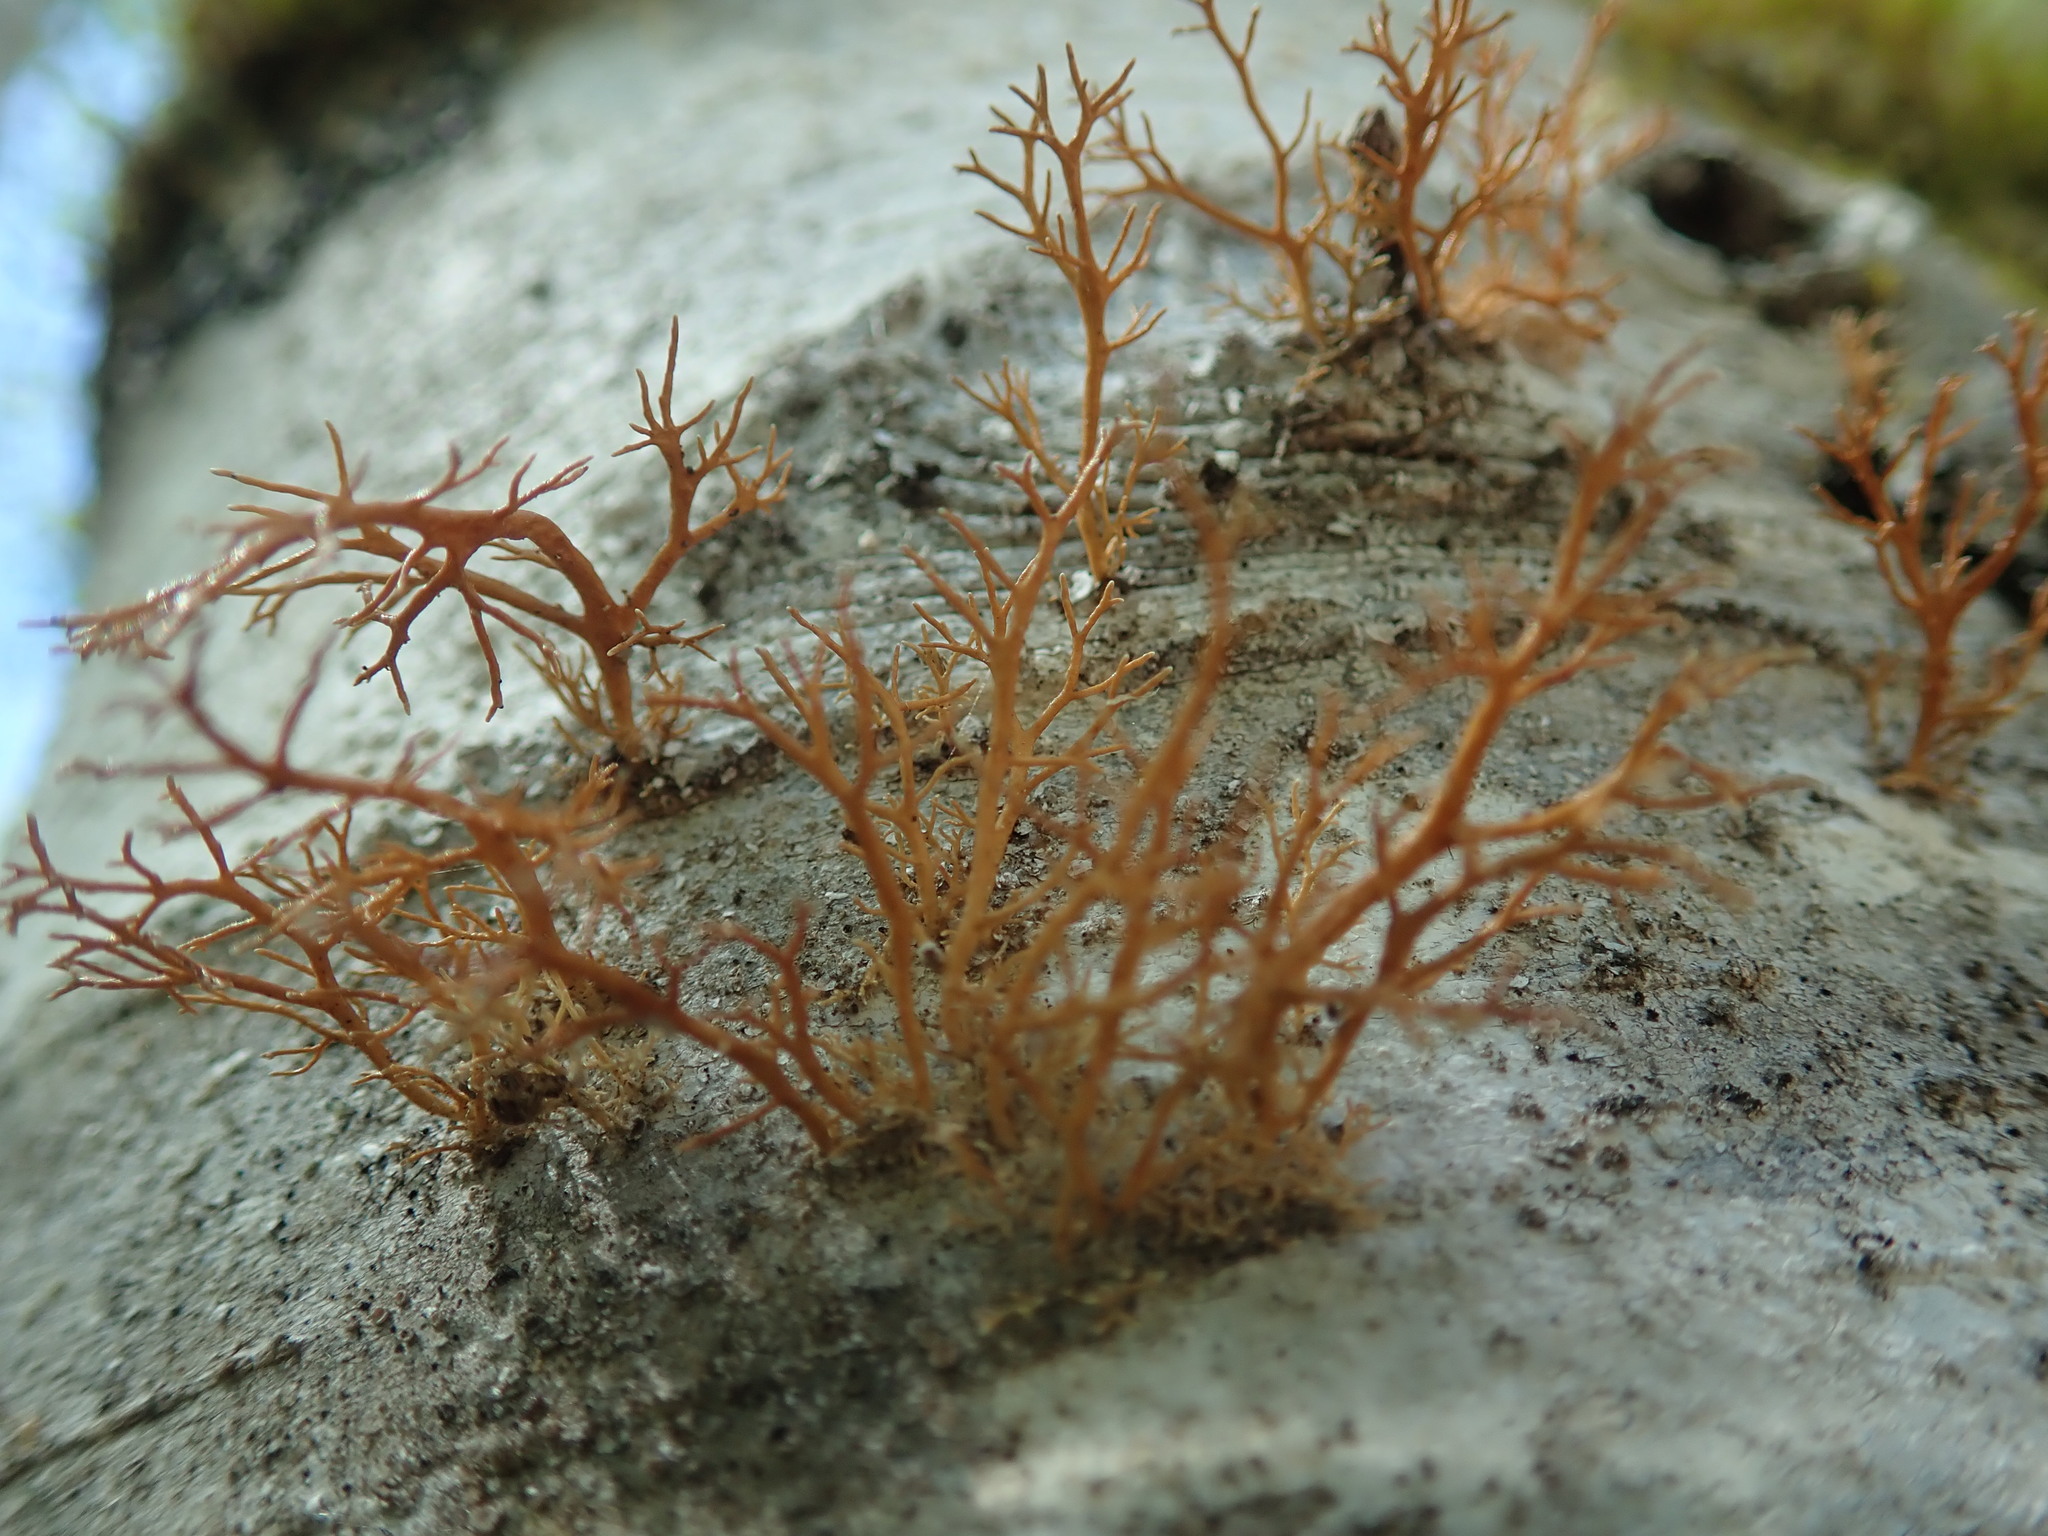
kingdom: Fungi
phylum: Ascomycota
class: Lecanoromycetes
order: Lecanorales
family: Sphaerophoraceae
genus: Sphaerophorus
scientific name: Sphaerophorus venerabilis
